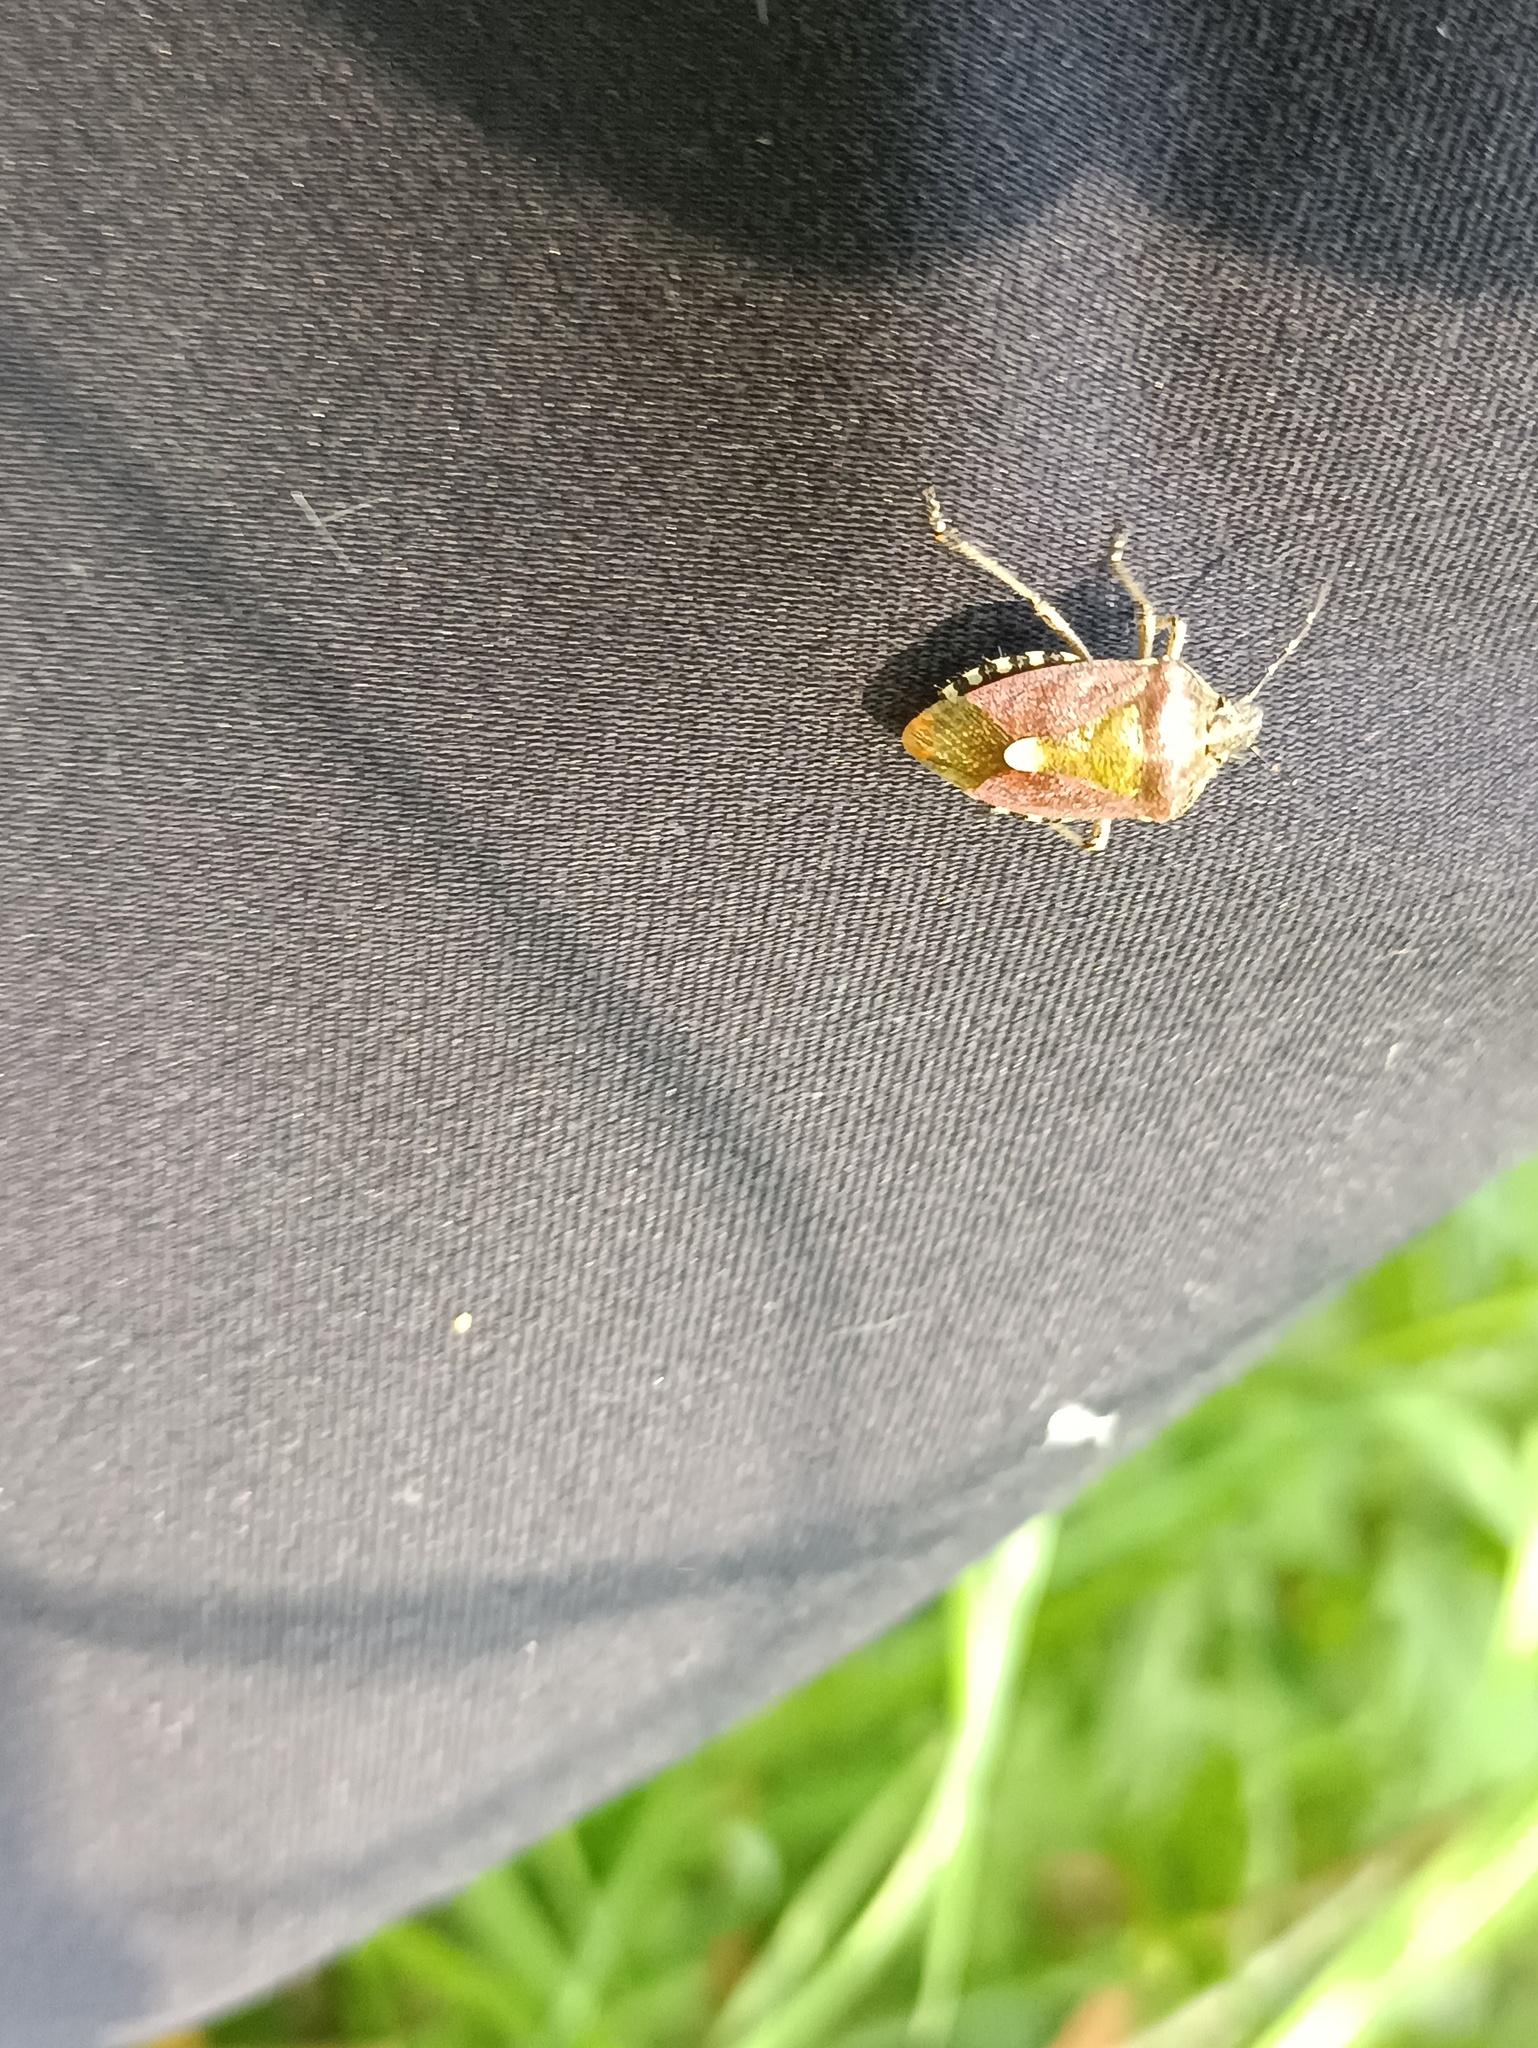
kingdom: Animalia
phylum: Arthropoda
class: Insecta
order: Hemiptera
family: Pentatomidae
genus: Dolycoris
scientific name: Dolycoris baccarum
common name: Sloe bug
